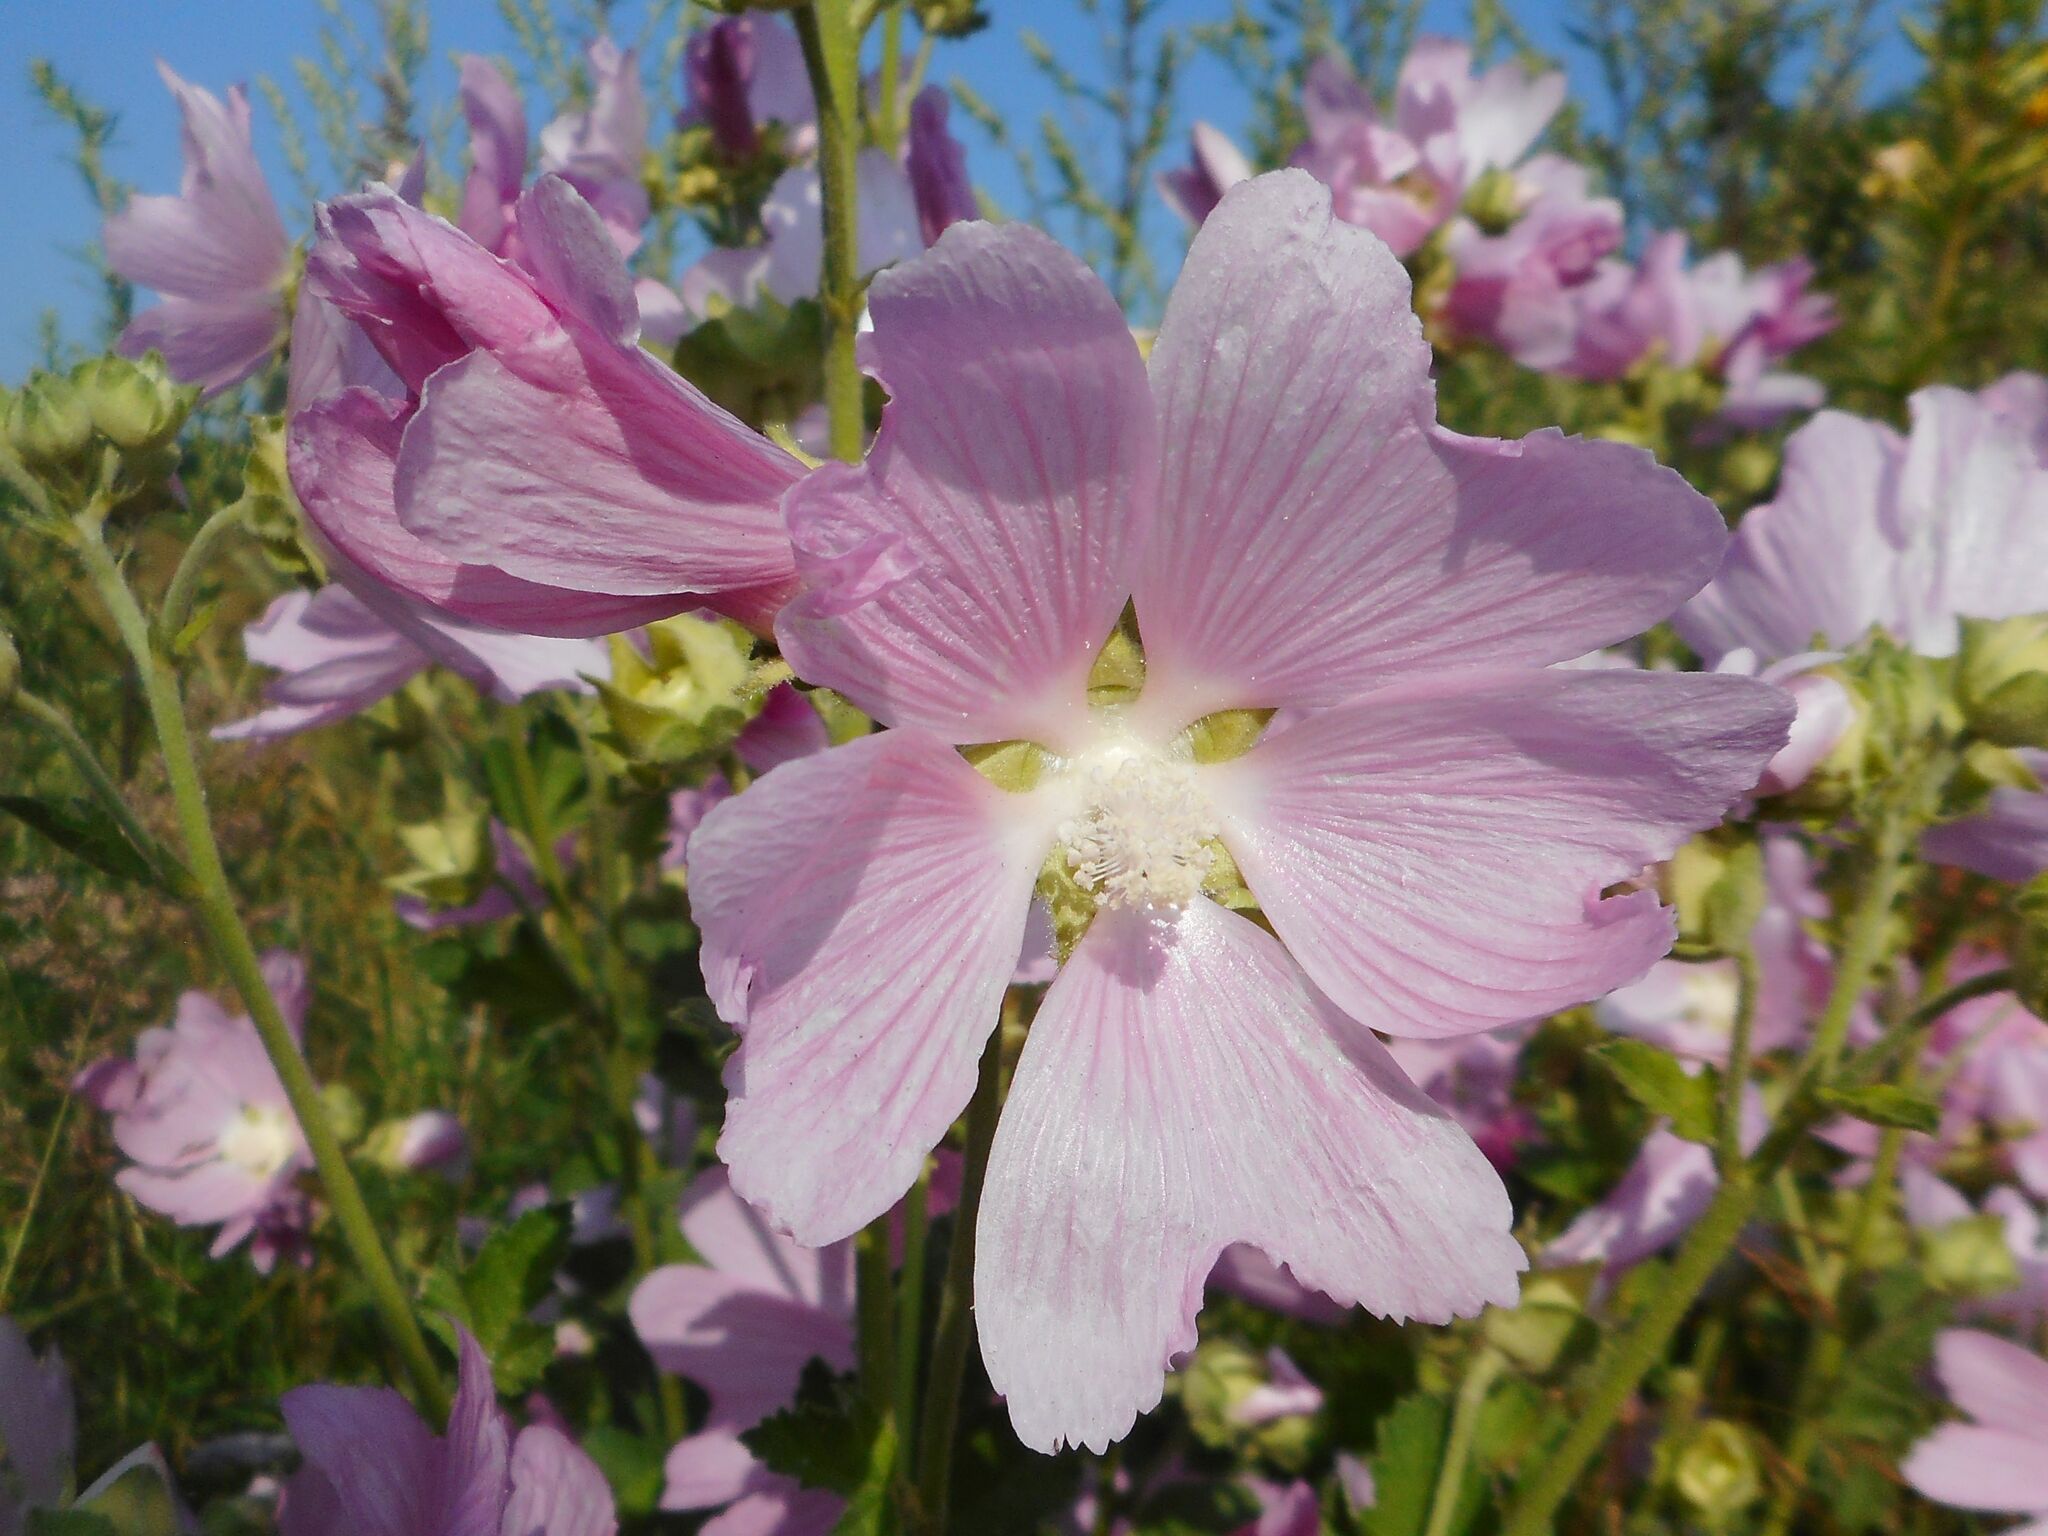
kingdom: Plantae
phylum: Tracheophyta
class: Magnoliopsida
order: Malvales
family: Malvaceae
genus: Malva
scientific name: Malva thuringiaca
